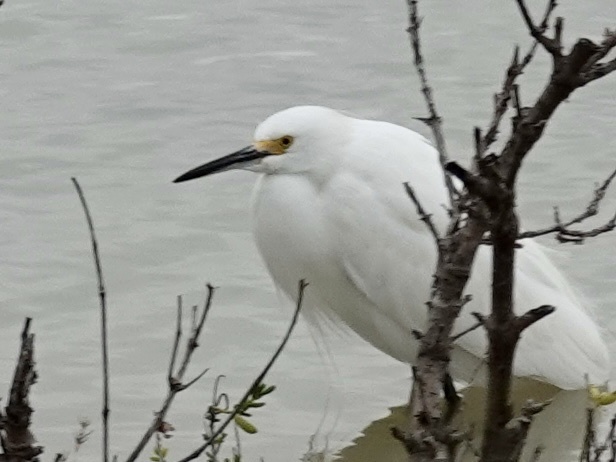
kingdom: Animalia
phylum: Chordata
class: Aves
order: Pelecaniformes
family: Ardeidae
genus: Egretta
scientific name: Egretta thula
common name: Snowy egret
